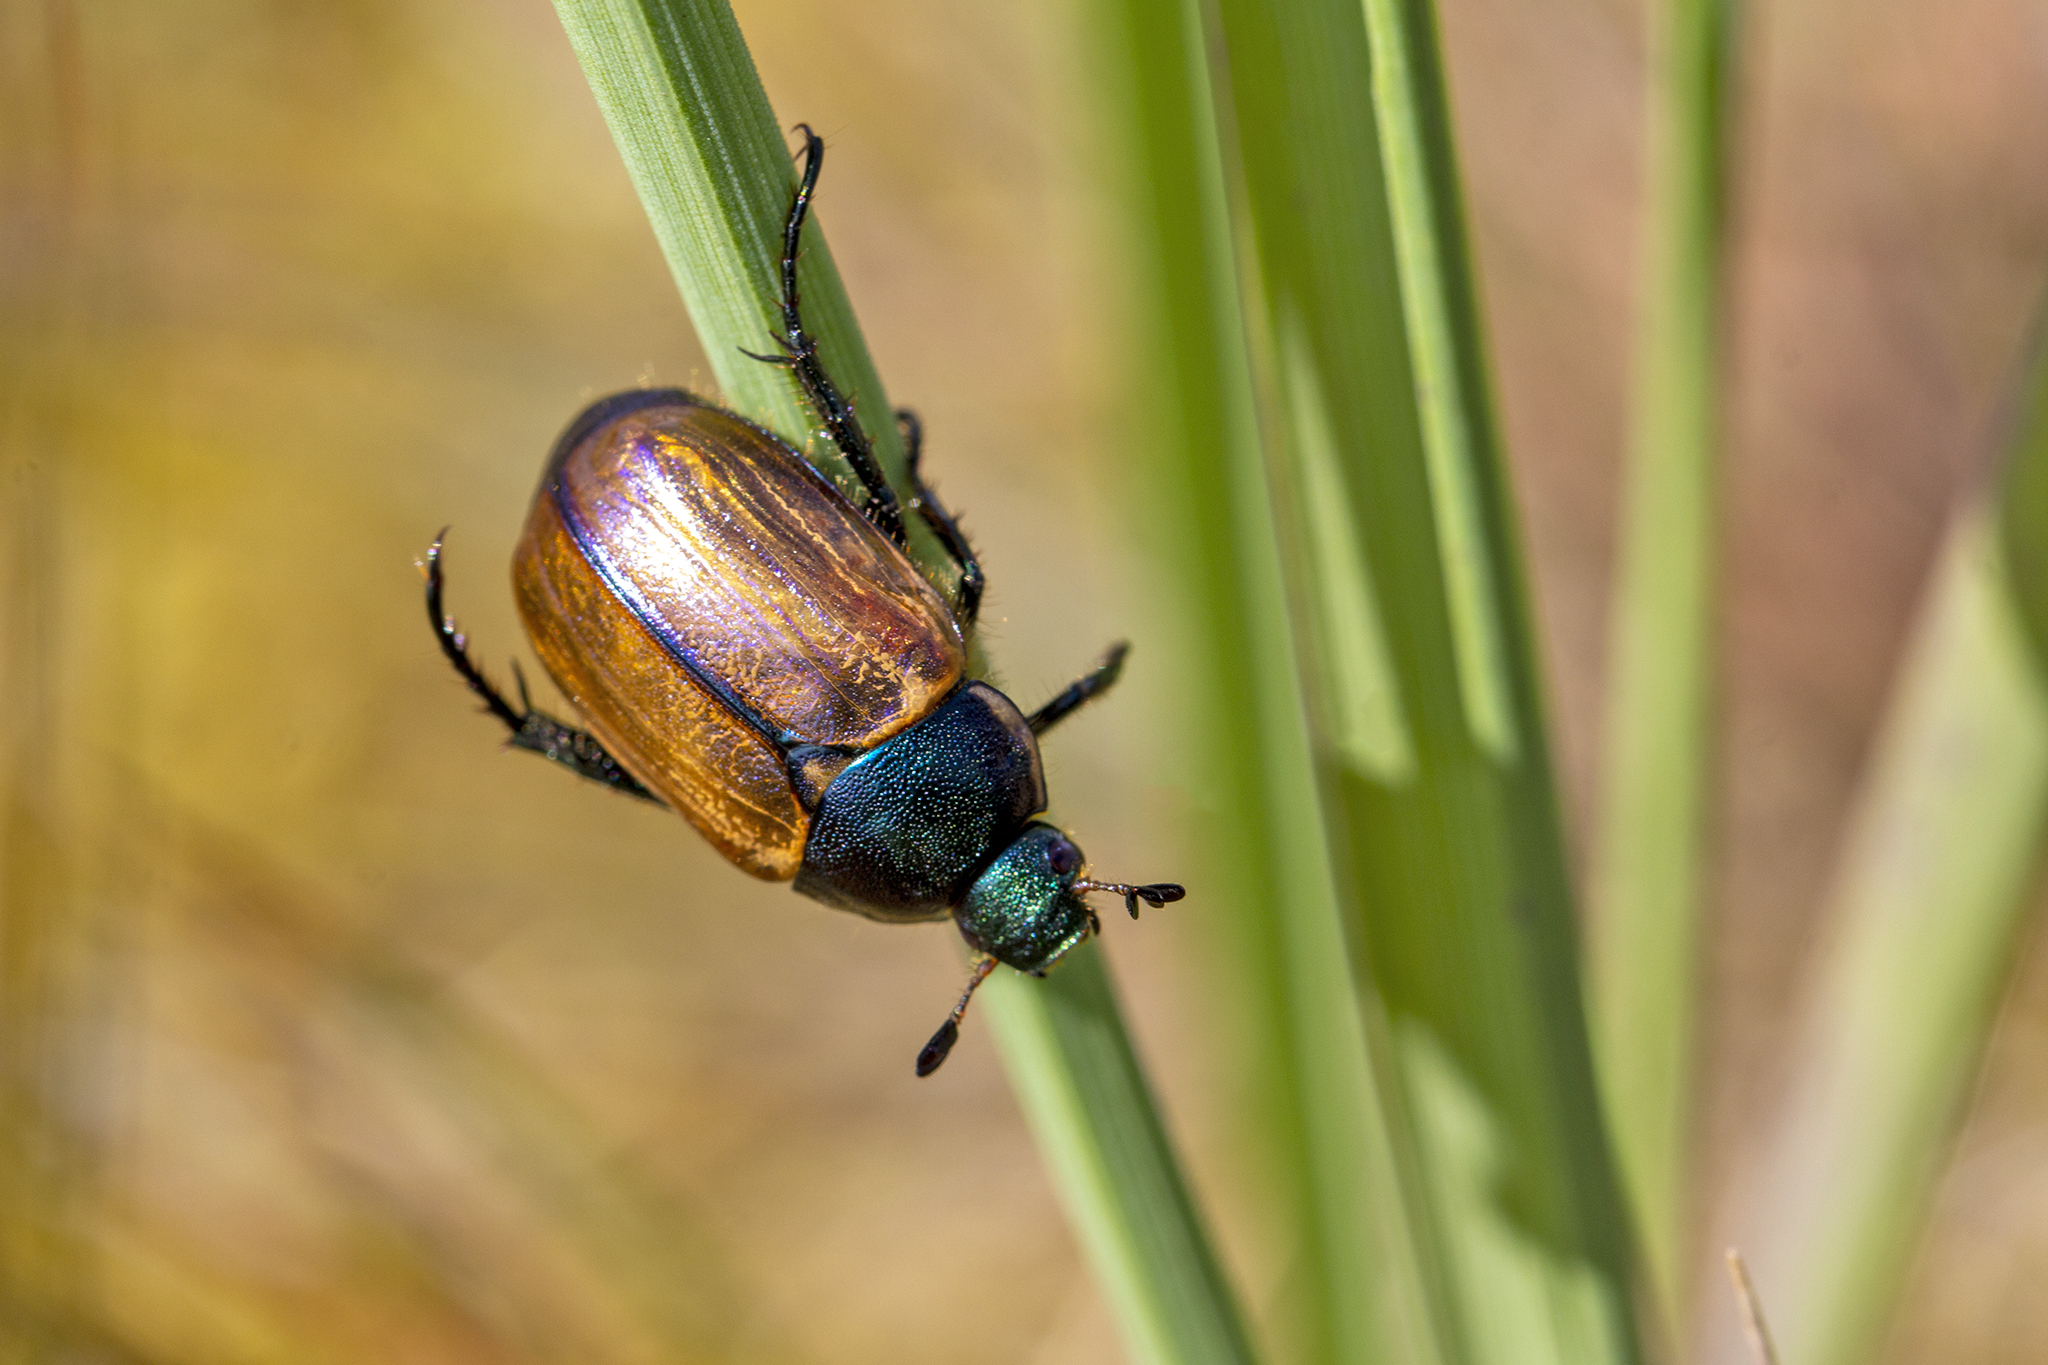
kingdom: Animalia
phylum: Arthropoda
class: Insecta
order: Coleoptera
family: Scarabaeidae
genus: Anomala
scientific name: Anomala dubia
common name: Dune chafer
